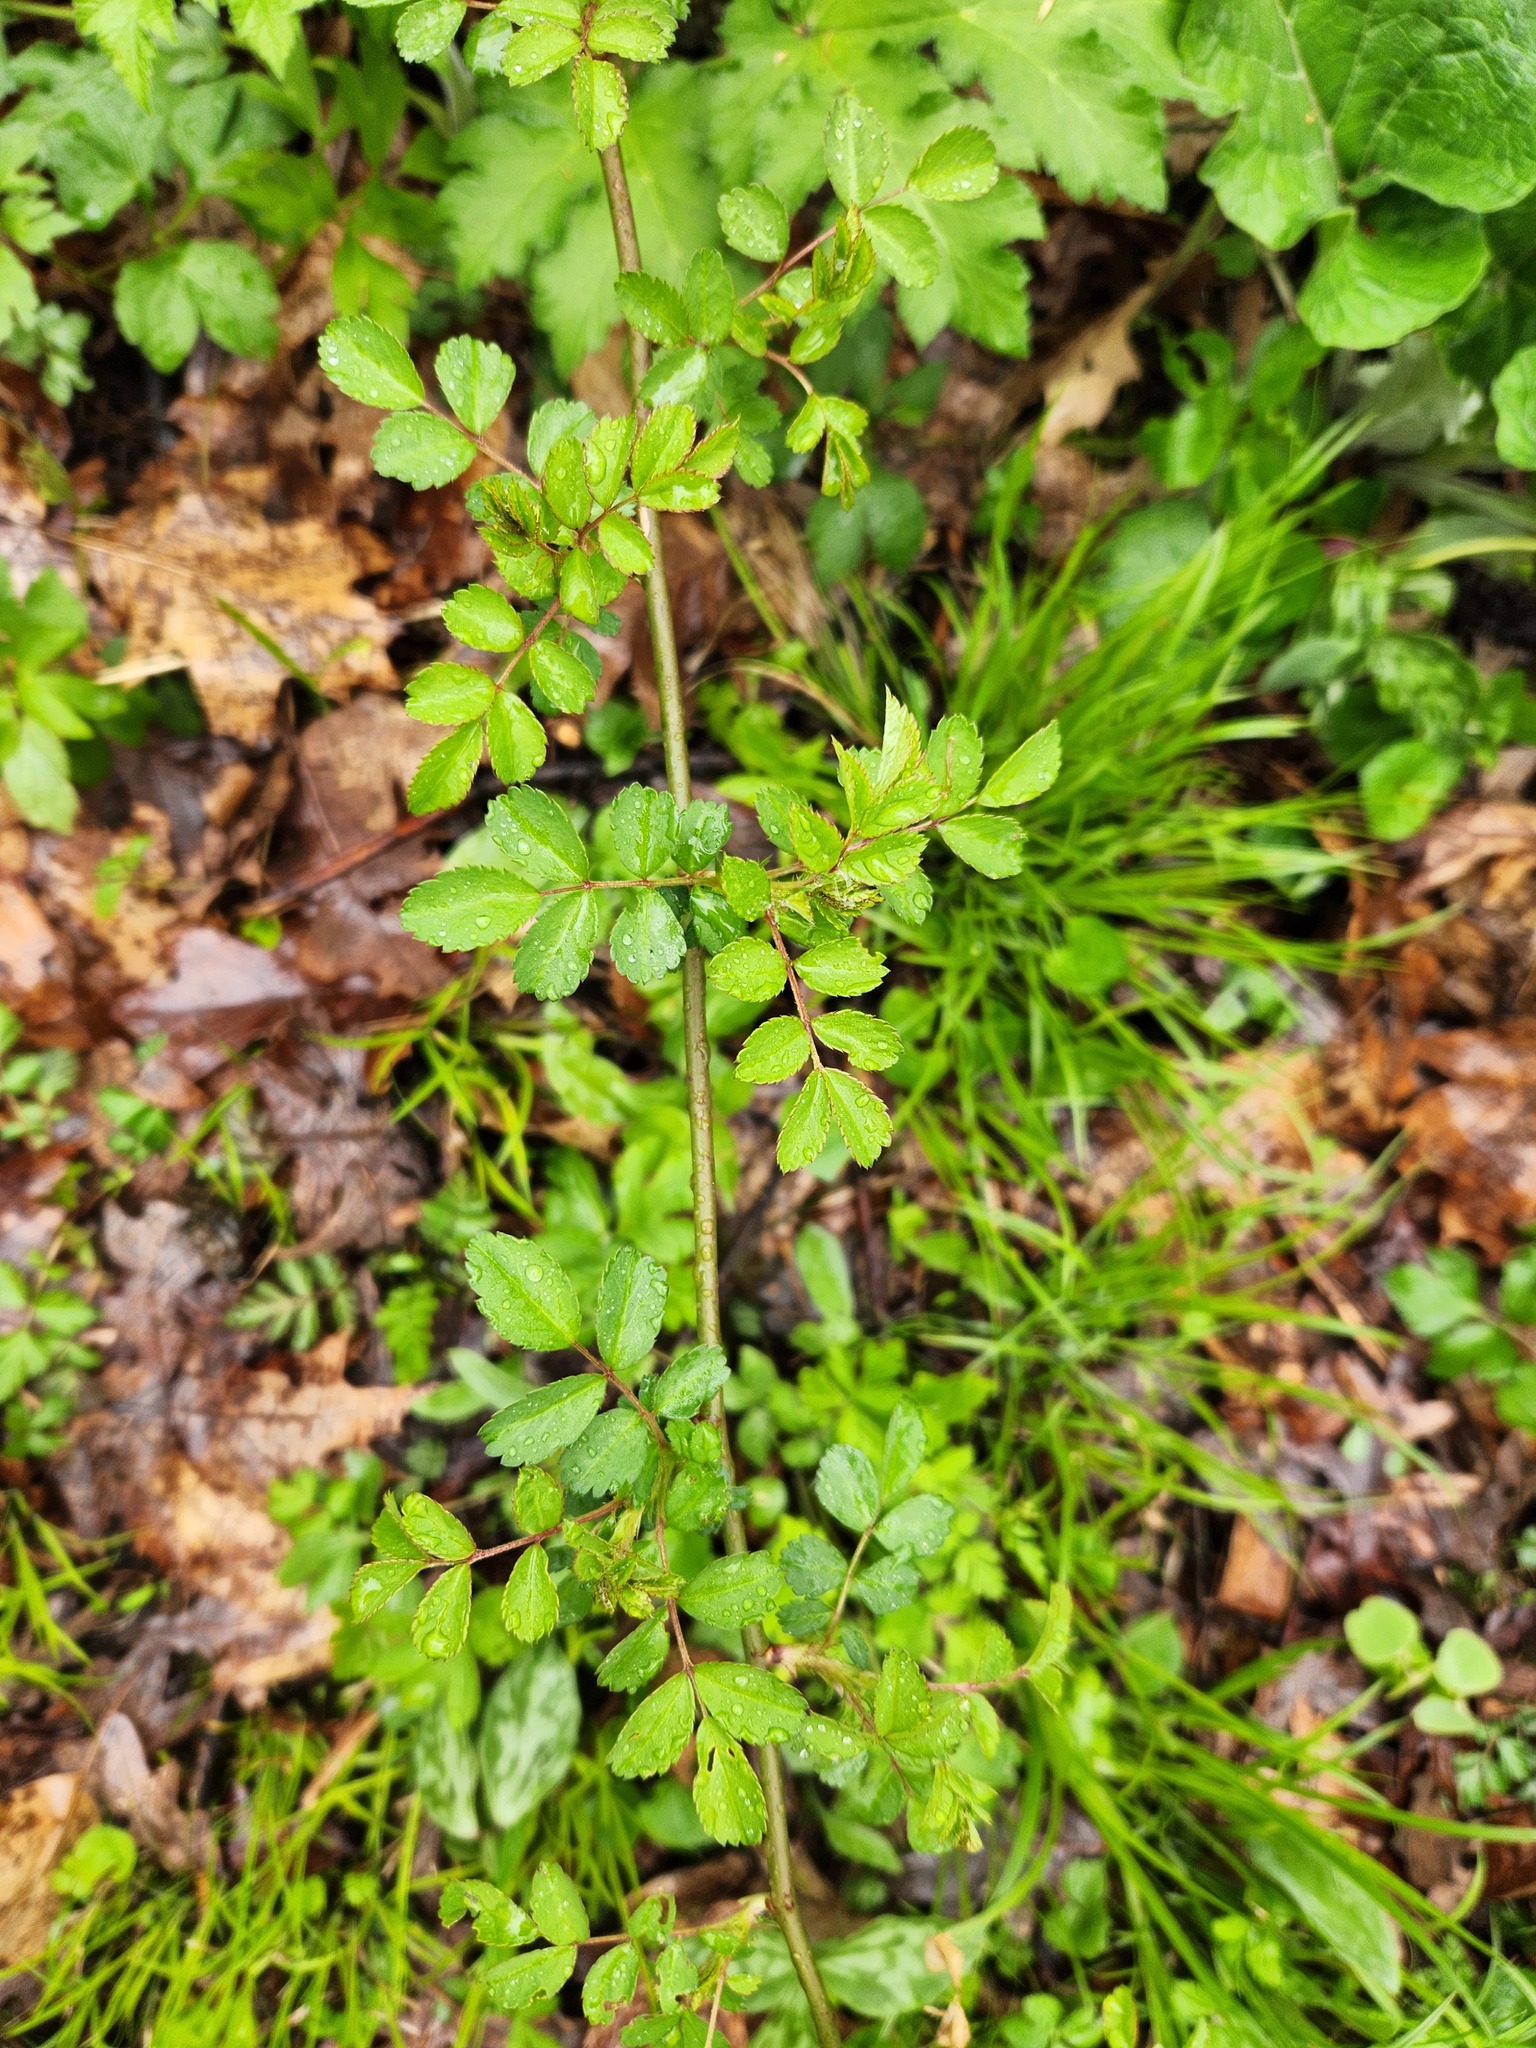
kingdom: Plantae
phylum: Tracheophyta
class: Magnoliopsida
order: Rosales
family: Rosaceae
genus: Rosa
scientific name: Rosa multiflora
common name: Multiflora rose
